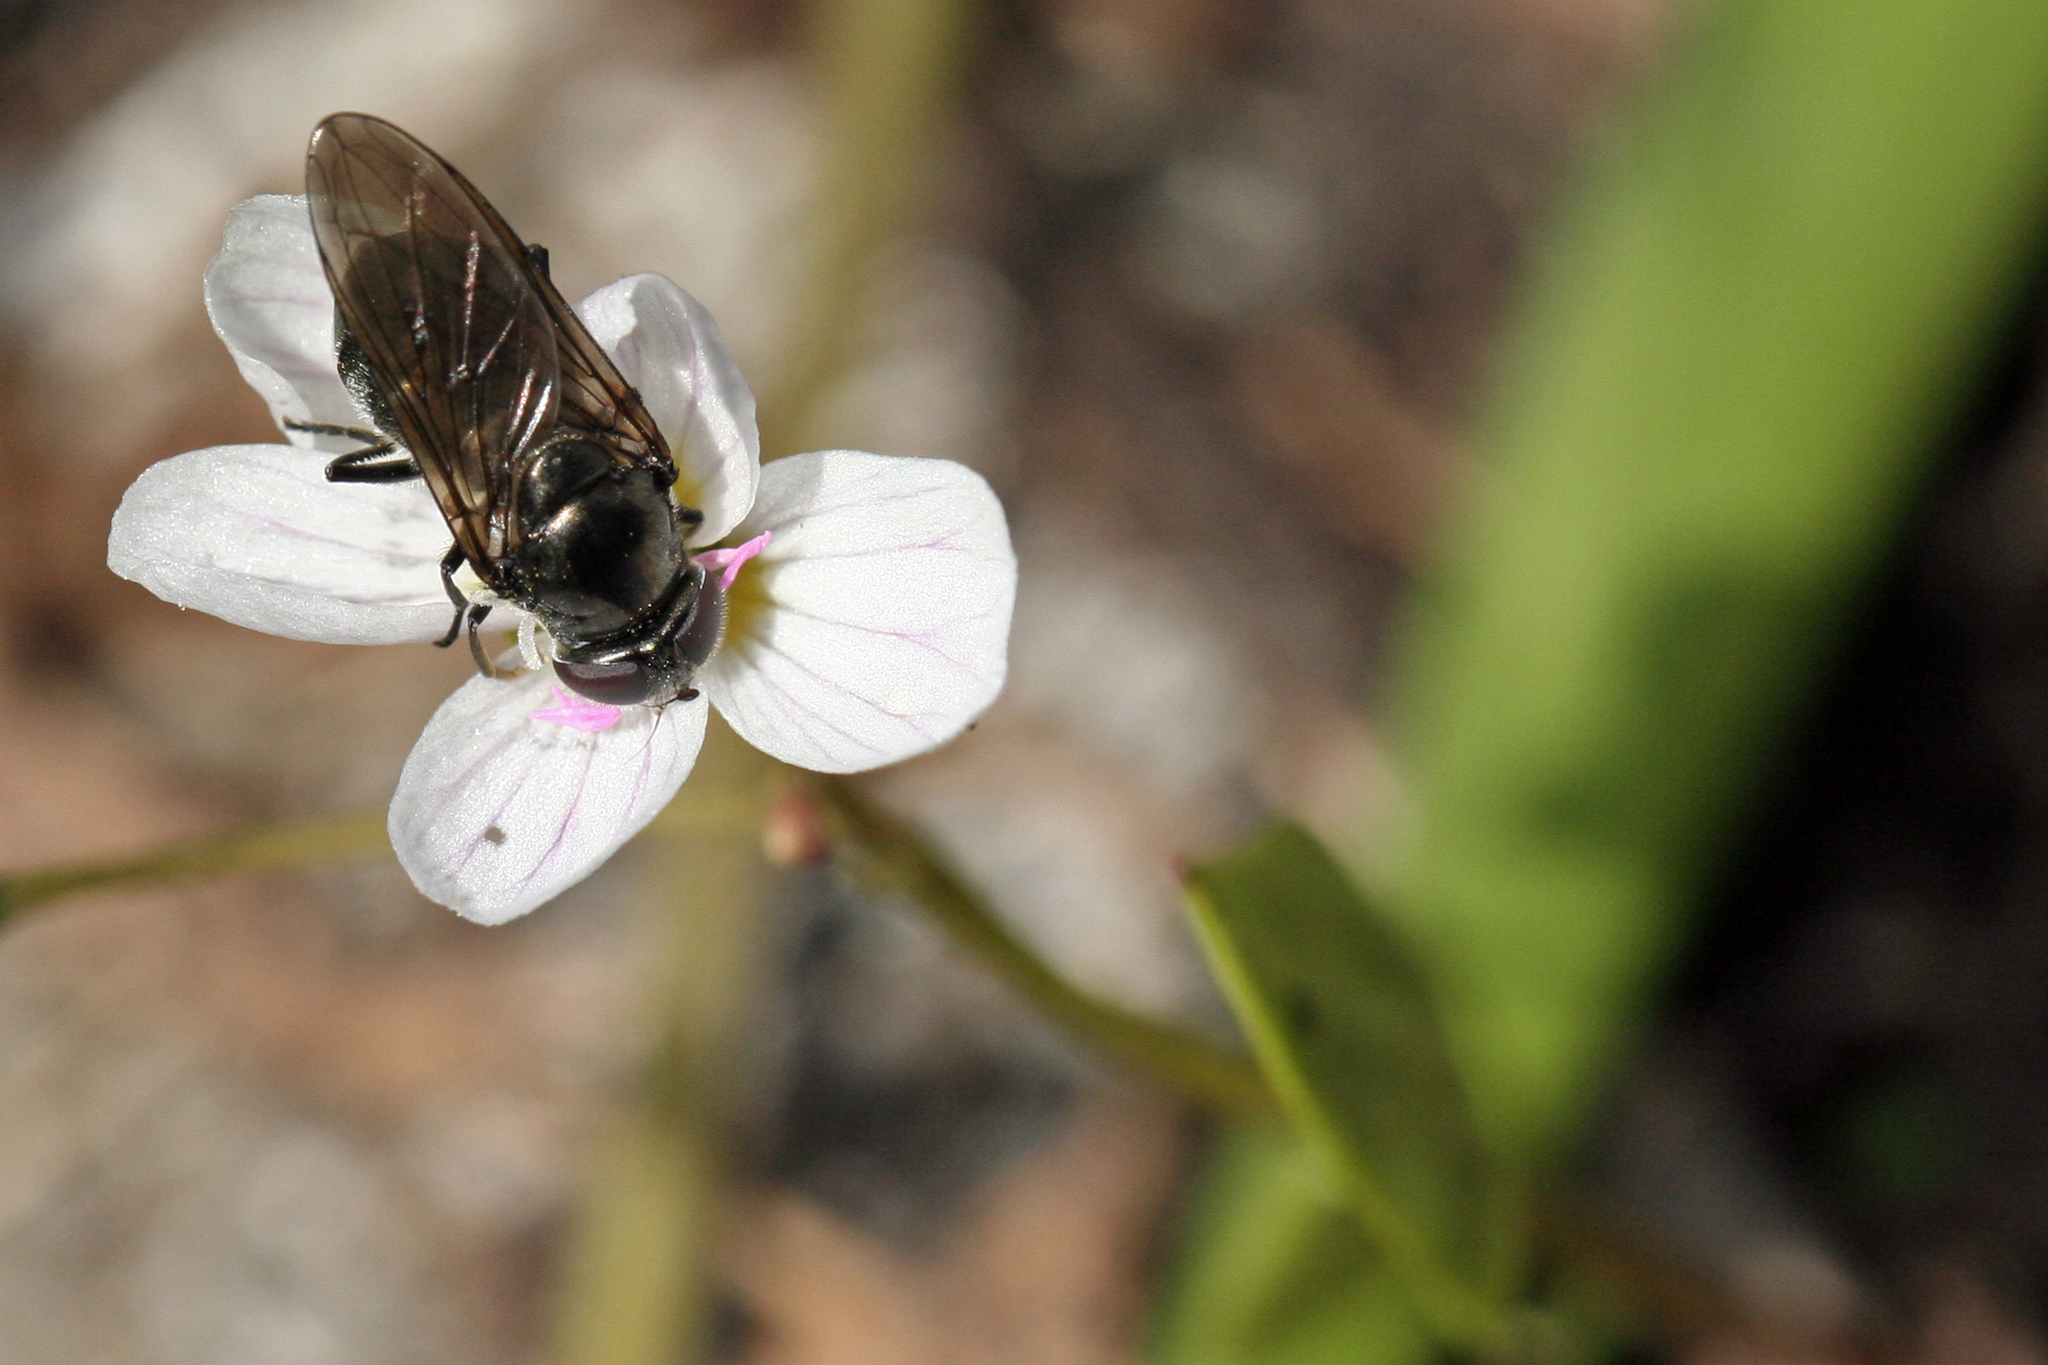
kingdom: Plantae
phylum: Tracheophyta
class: Magnoliopsida
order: Caryophyllales
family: Montiaceae
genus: Claytonia
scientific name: Claytonia lanceolata
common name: Western spring-beauty
